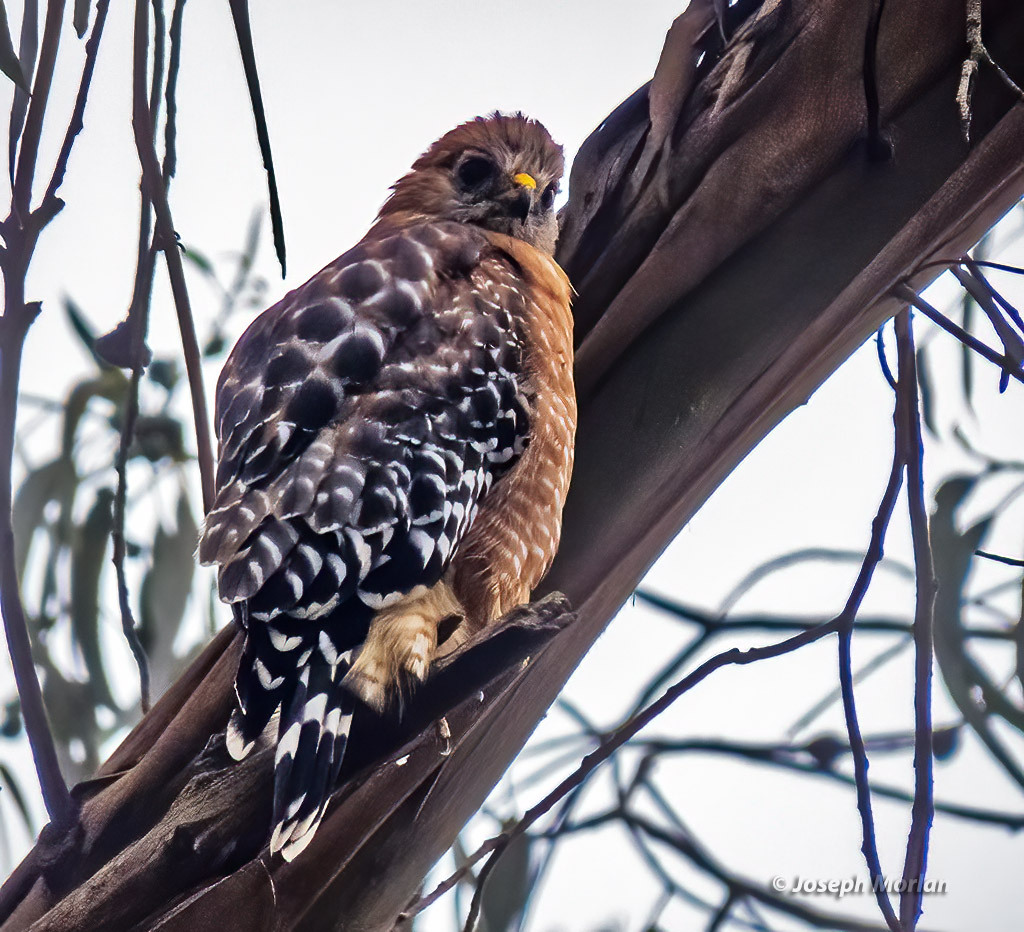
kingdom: Animalia
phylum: Chordata
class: Aves
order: Accipitriformes
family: Accipitridae
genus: Buteo
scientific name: Buteo lineatus
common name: Red-shouldered hawk
